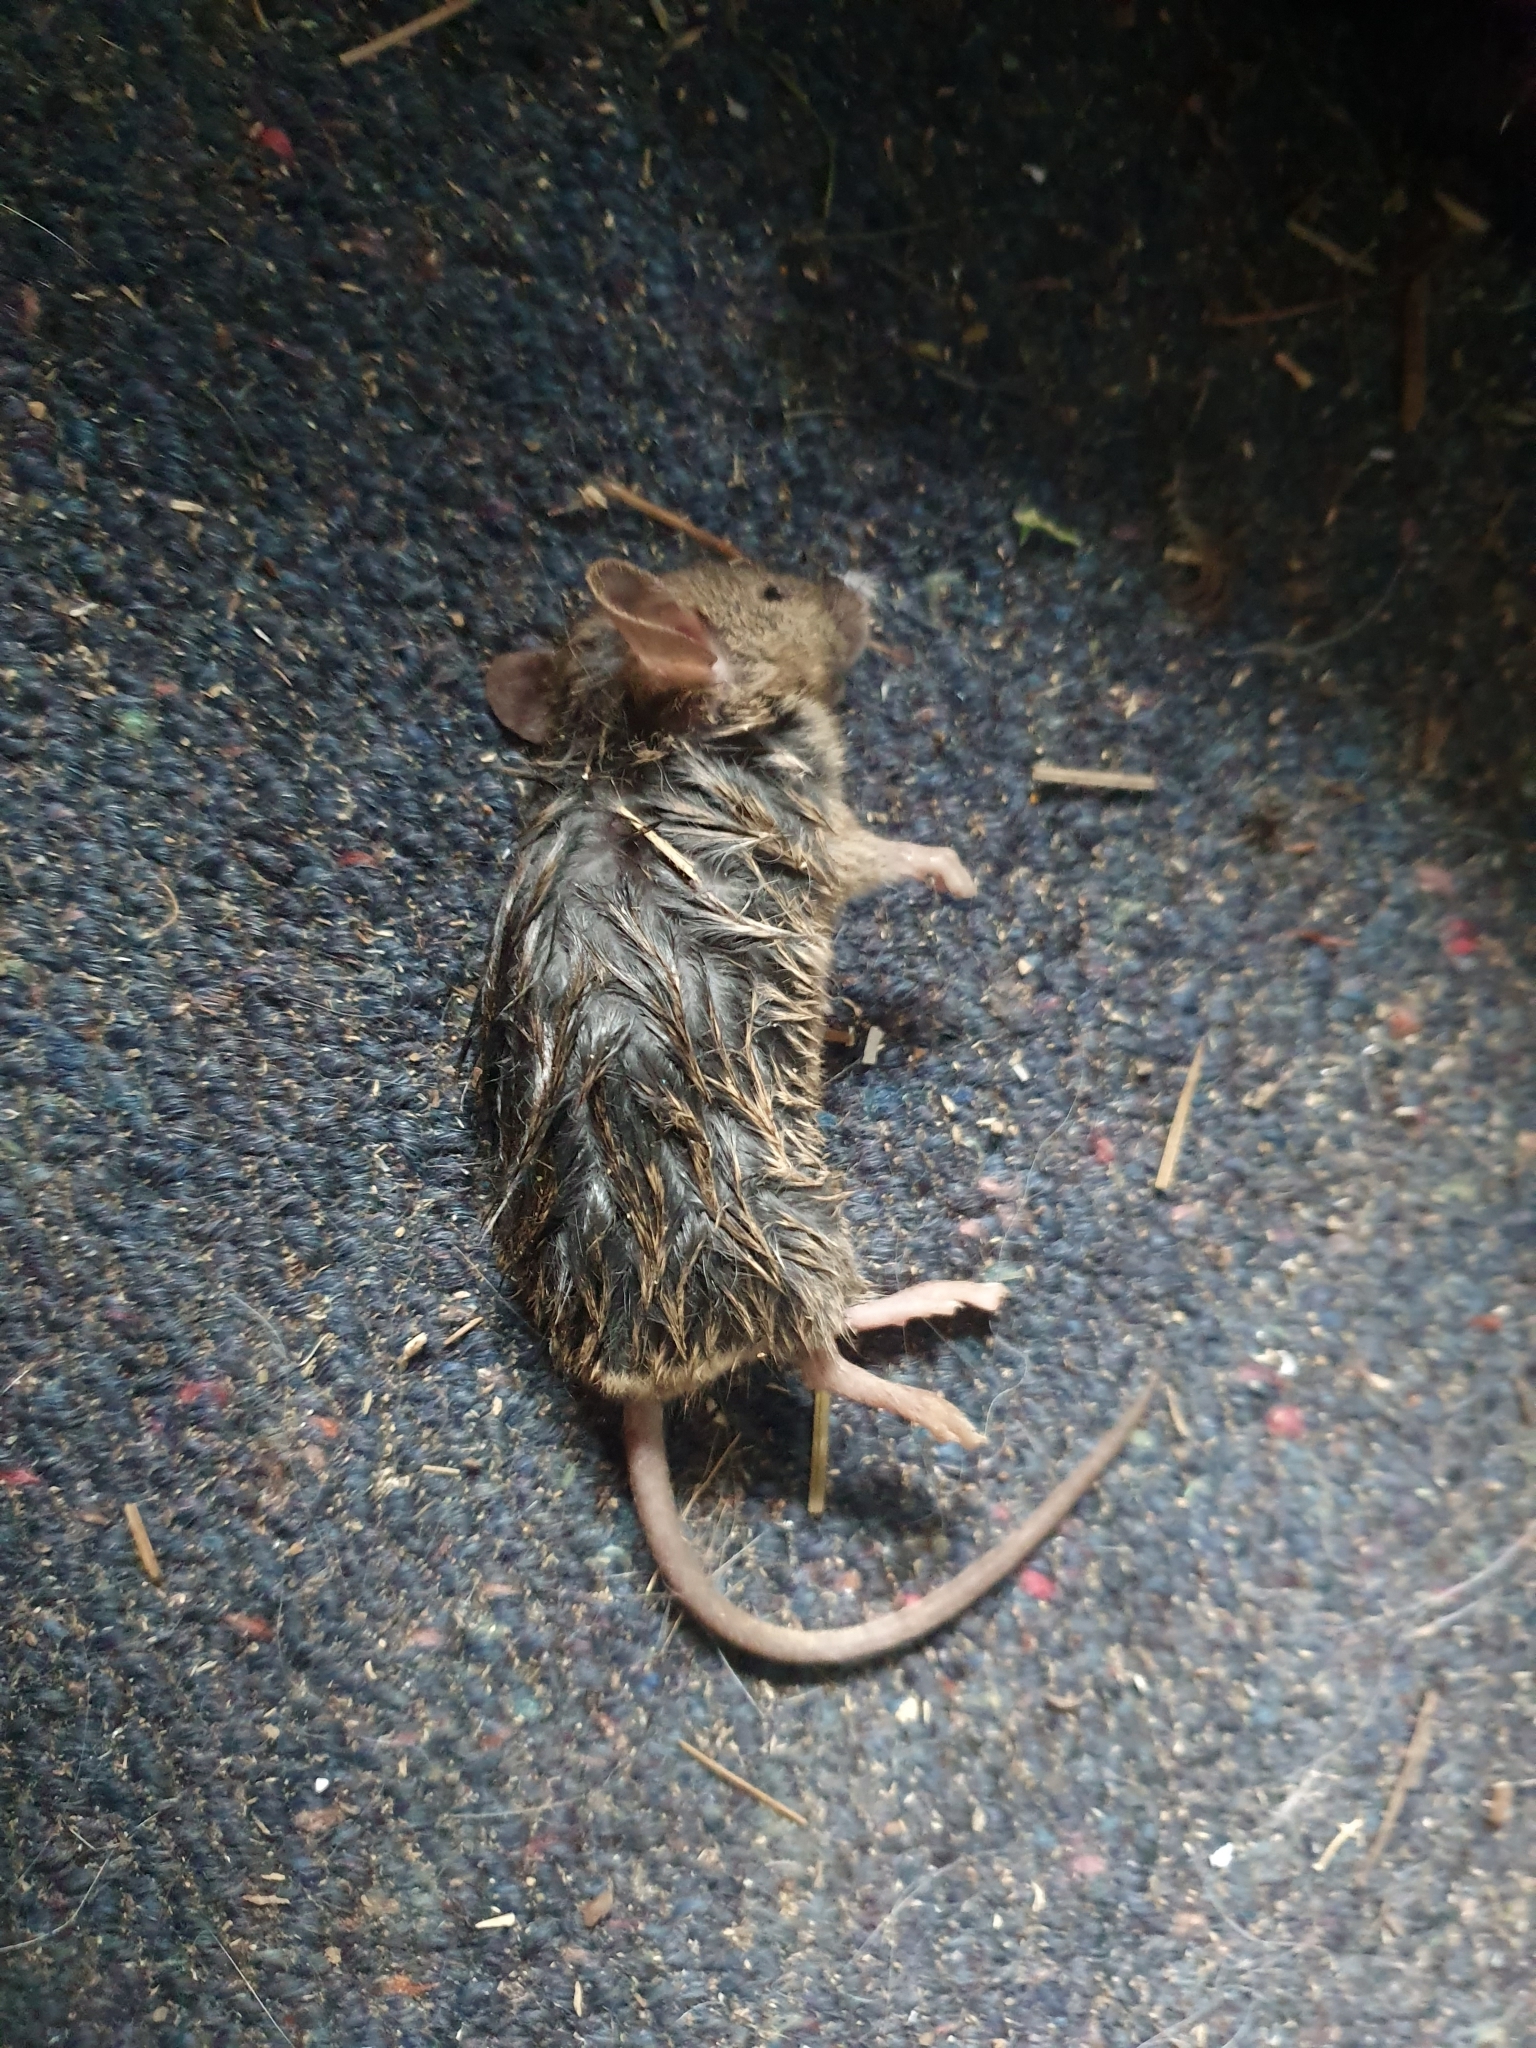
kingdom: Animalia
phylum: Chordata
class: Mammalia
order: Rodentia
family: Muridae
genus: Mus
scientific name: Mus musculus
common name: House mouse
